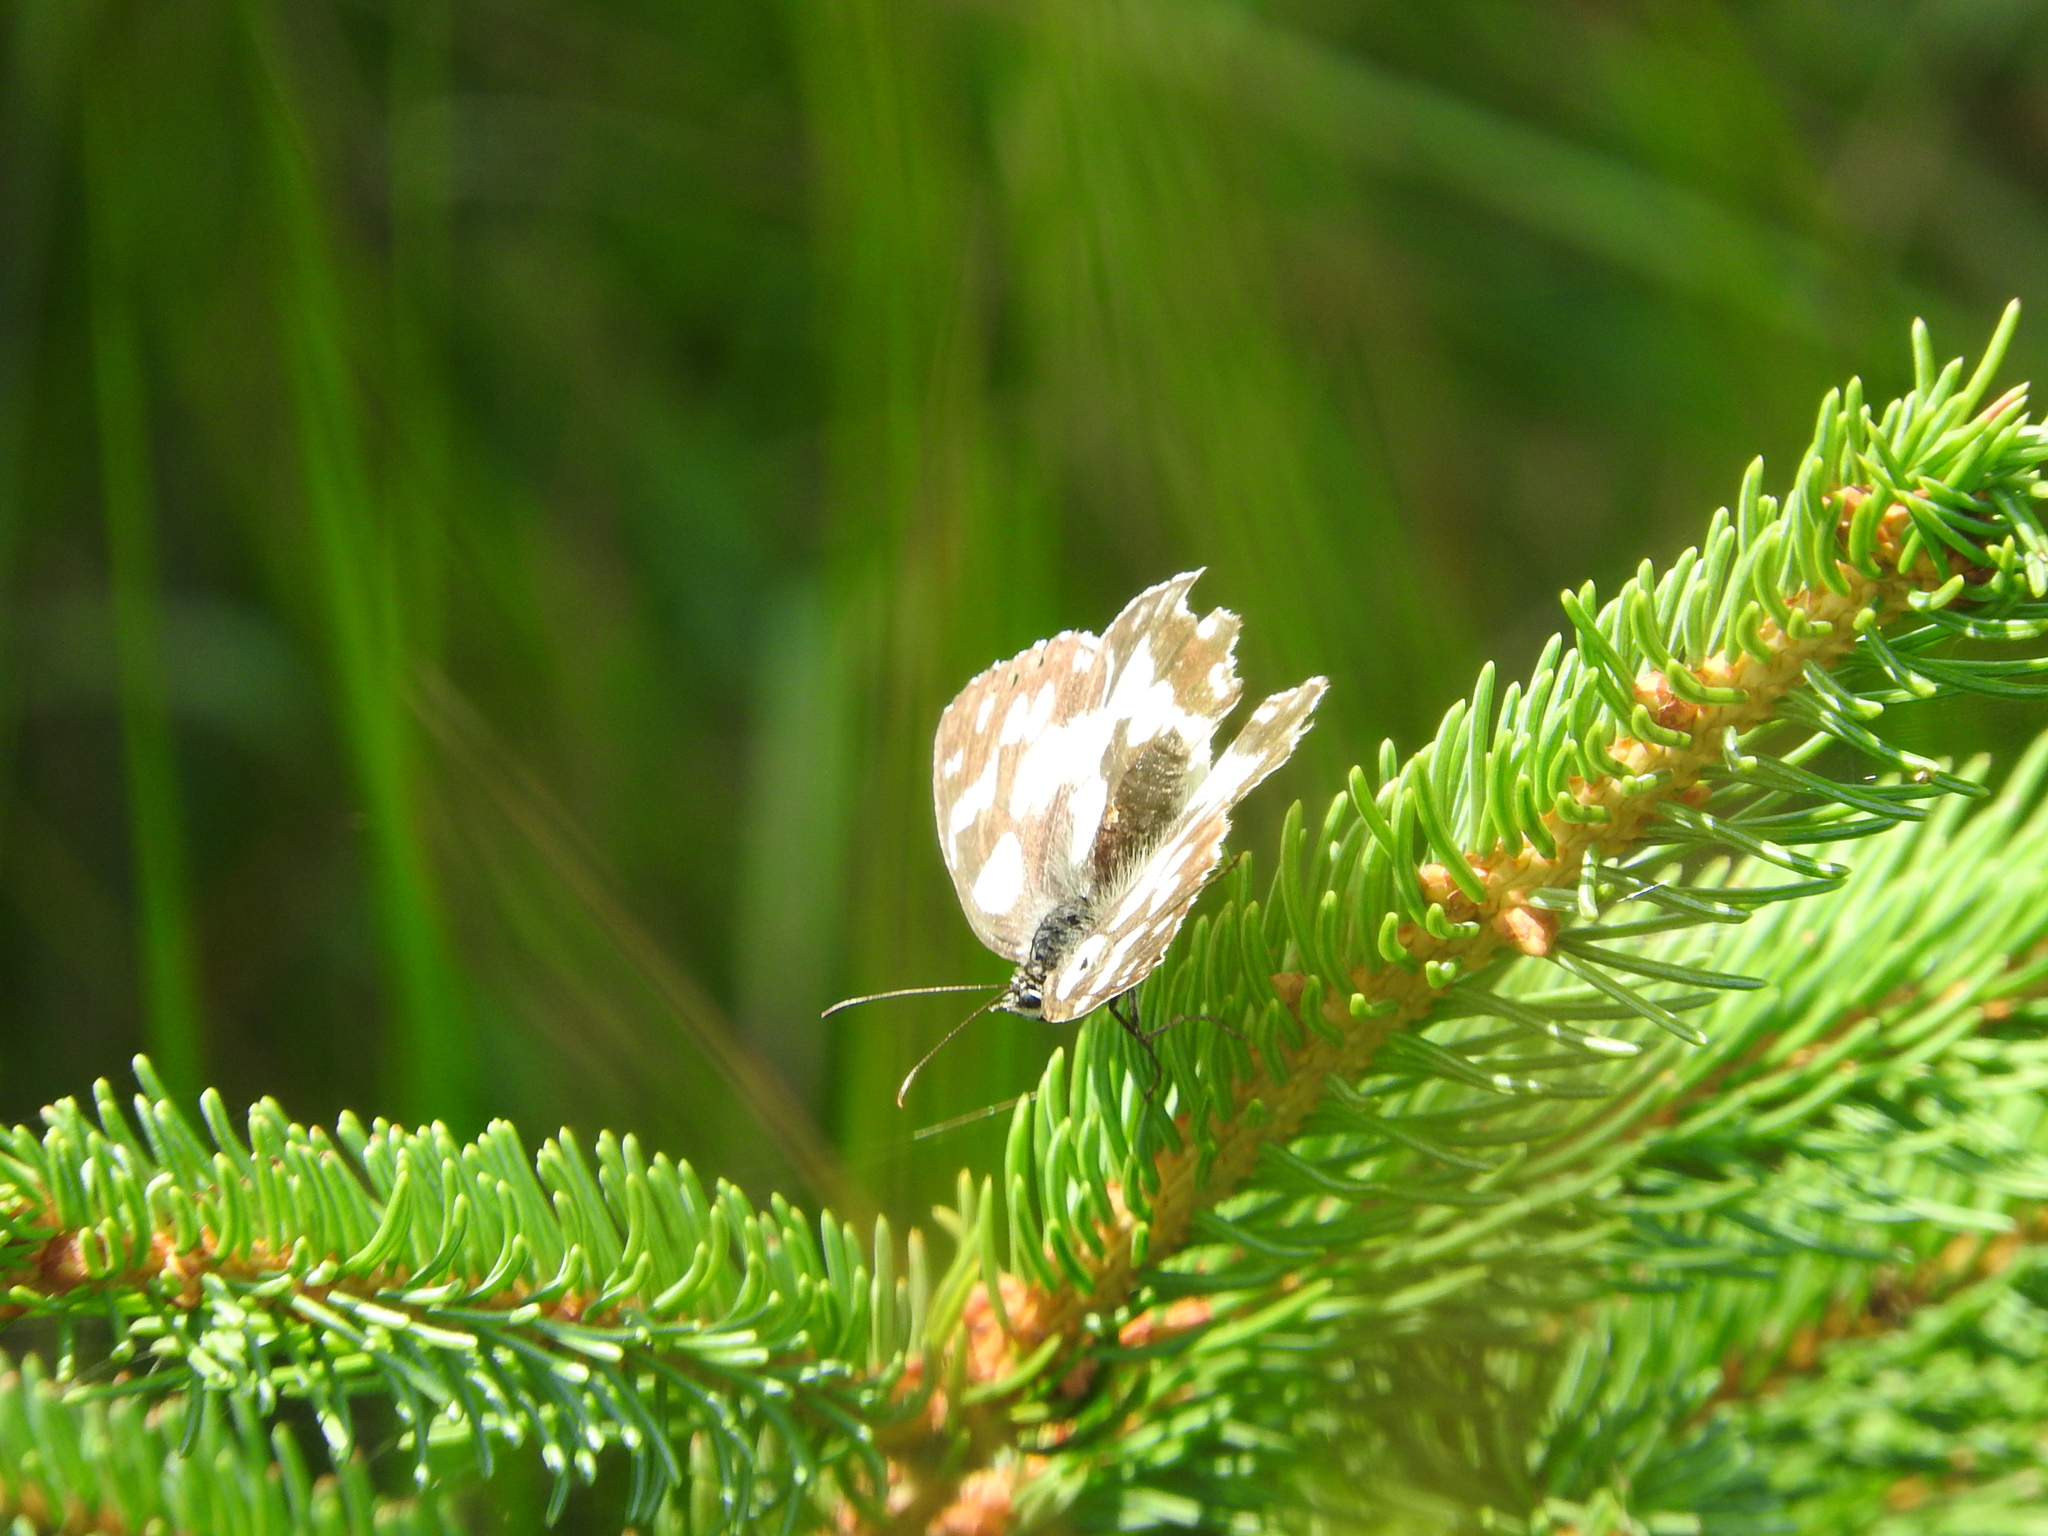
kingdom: Animalia
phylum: Arthropoda
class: Insecta
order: Lepidoptera
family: Nymphalidae
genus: Melanargia
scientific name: Melanargia galathea
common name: Marbled white
